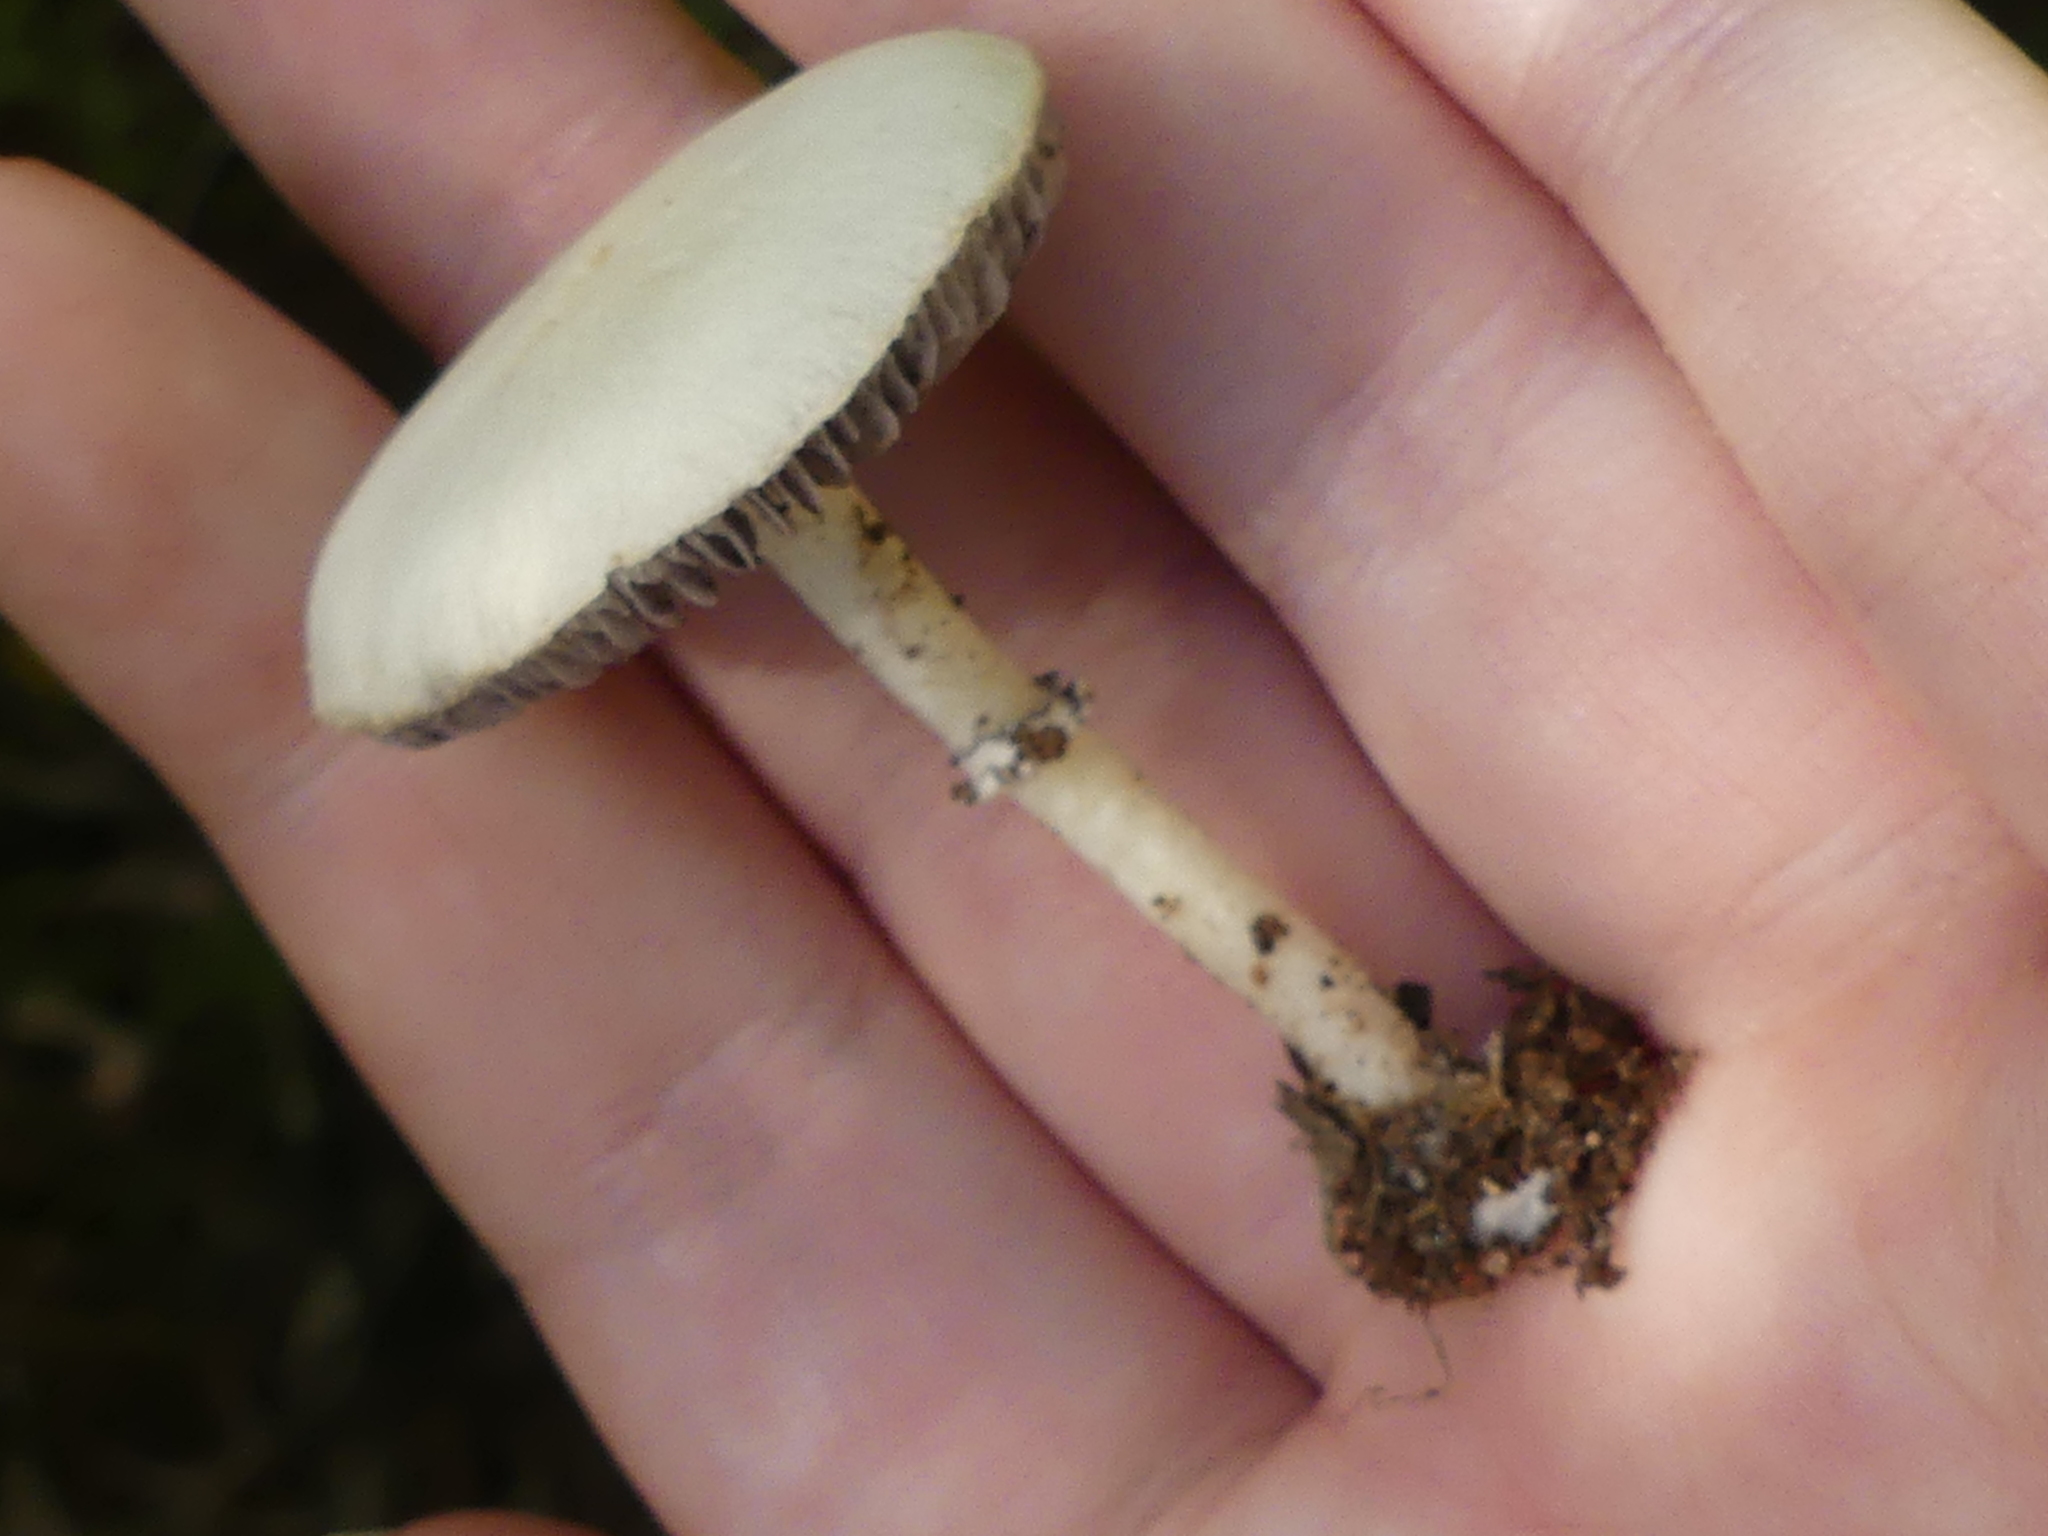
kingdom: Fungi
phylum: Basidiomycota
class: Agaricomycetes
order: Agaricales
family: Hymenogastraceae
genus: Psilocybe
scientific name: Psilocybe coronilla
